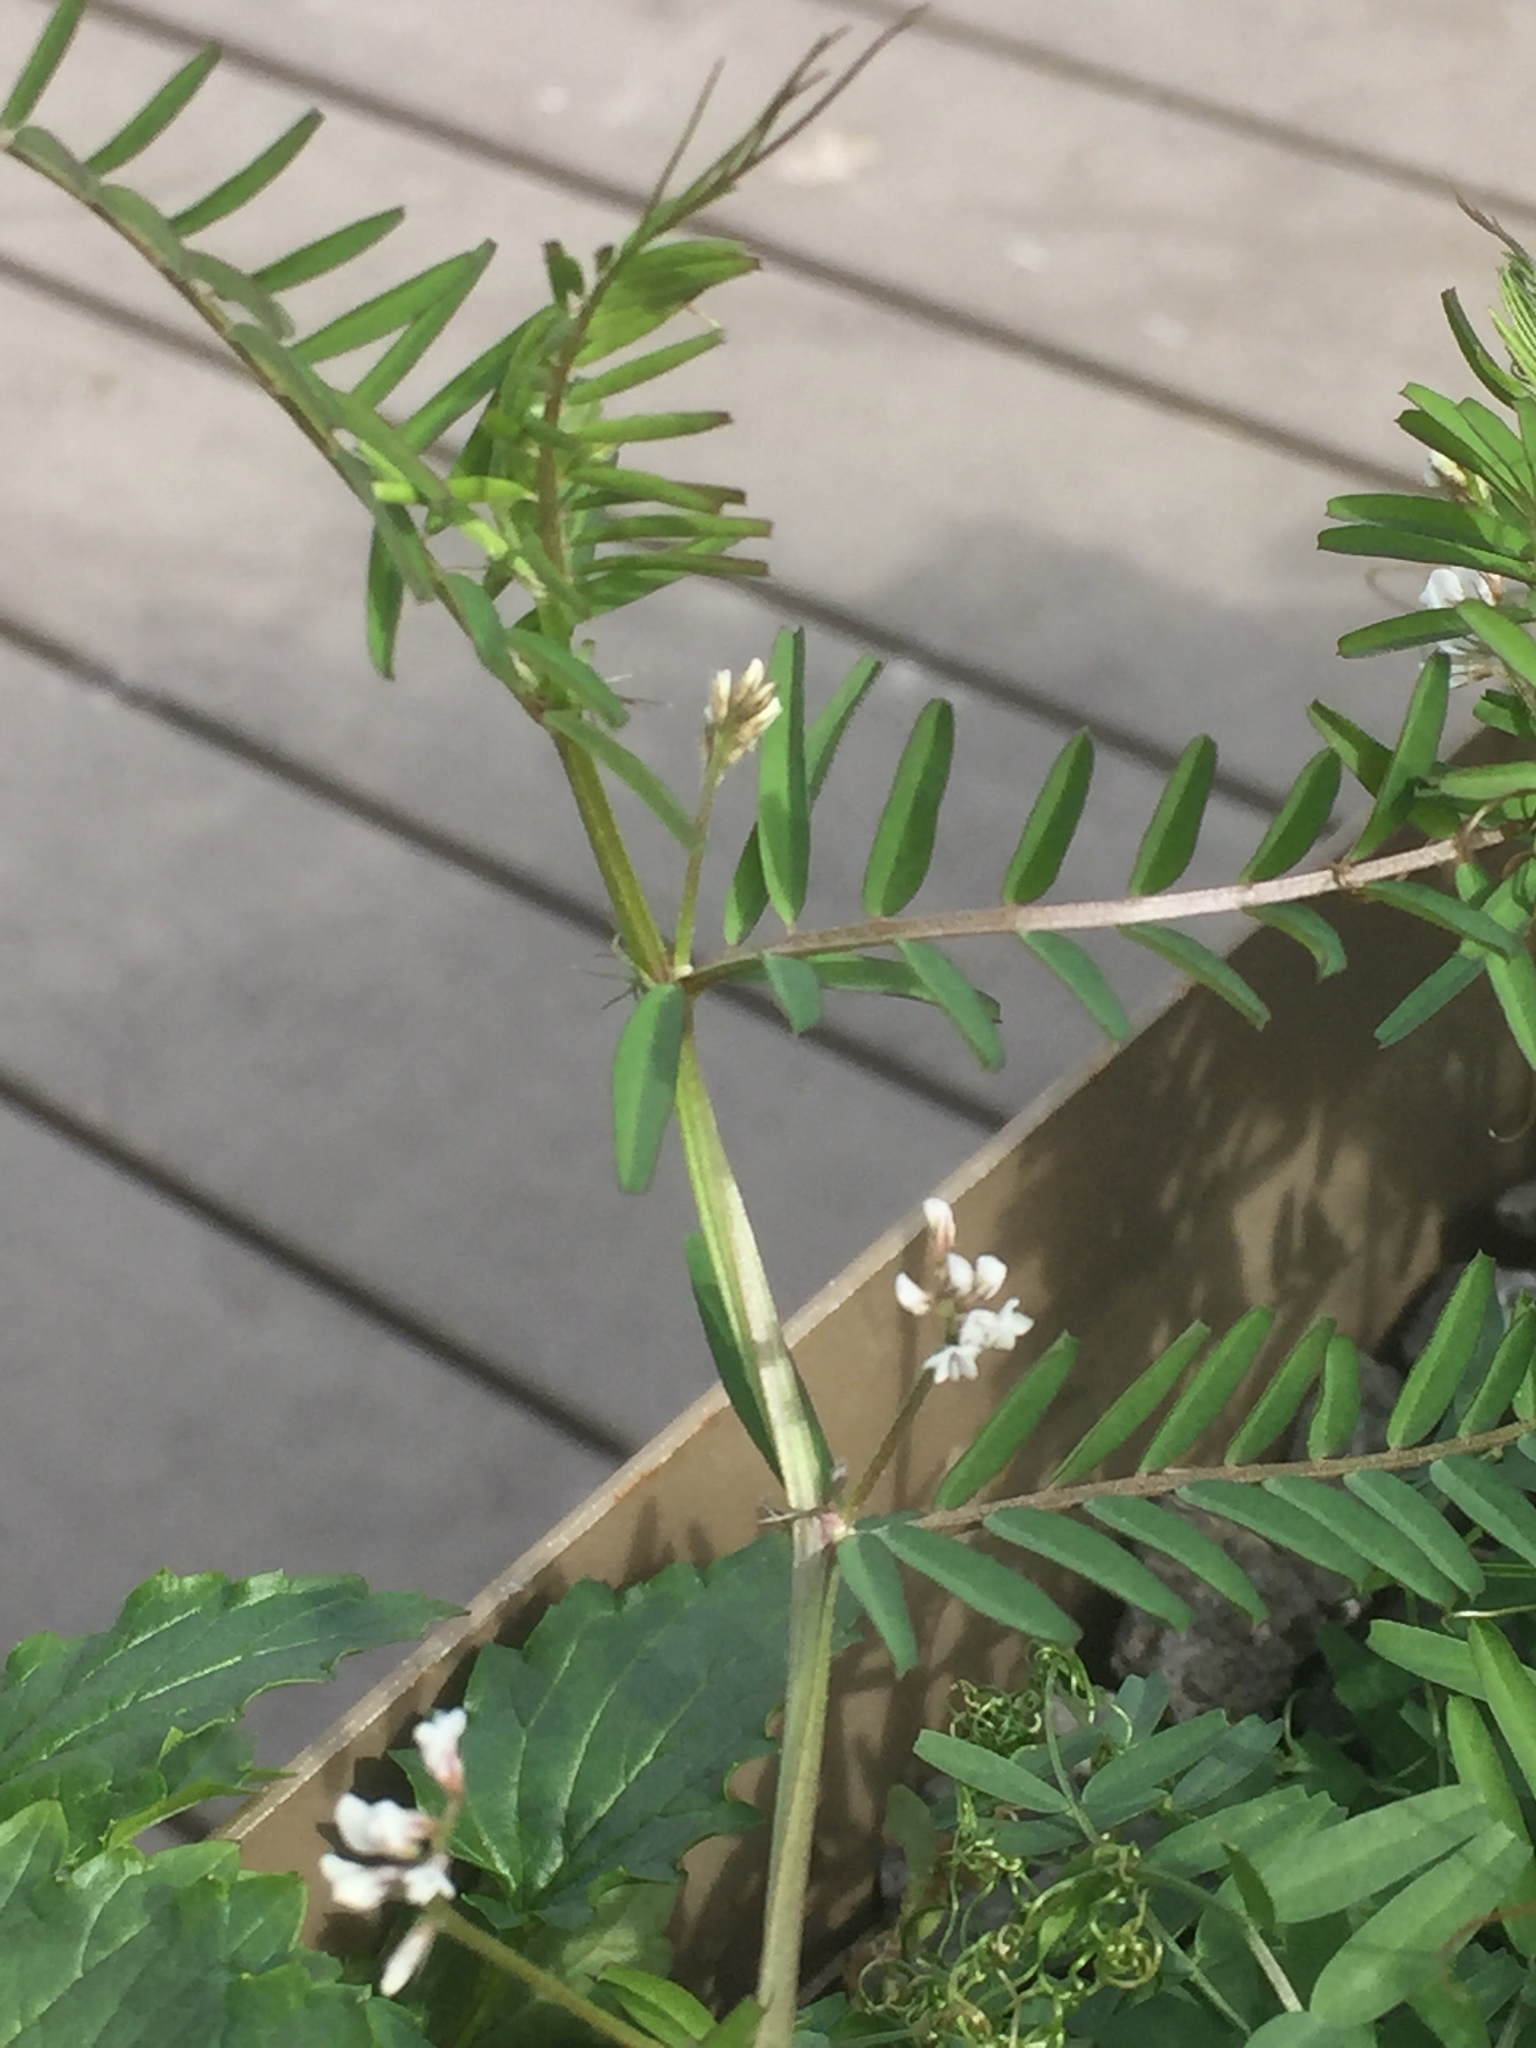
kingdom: Plantae
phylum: Tracheophyta
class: Magnoliopsida
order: Fabales
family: Fabaceae
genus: Vicia
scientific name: Vicia hirsuta
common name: Tiny vetch
